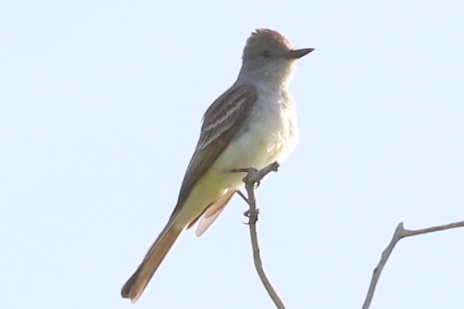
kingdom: Animalia
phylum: Chordata
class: Aves
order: Passeriformes
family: Tyrannidae
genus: Myiarchus
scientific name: Myiarchus cinerascens
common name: Ash-throated flycatcher
